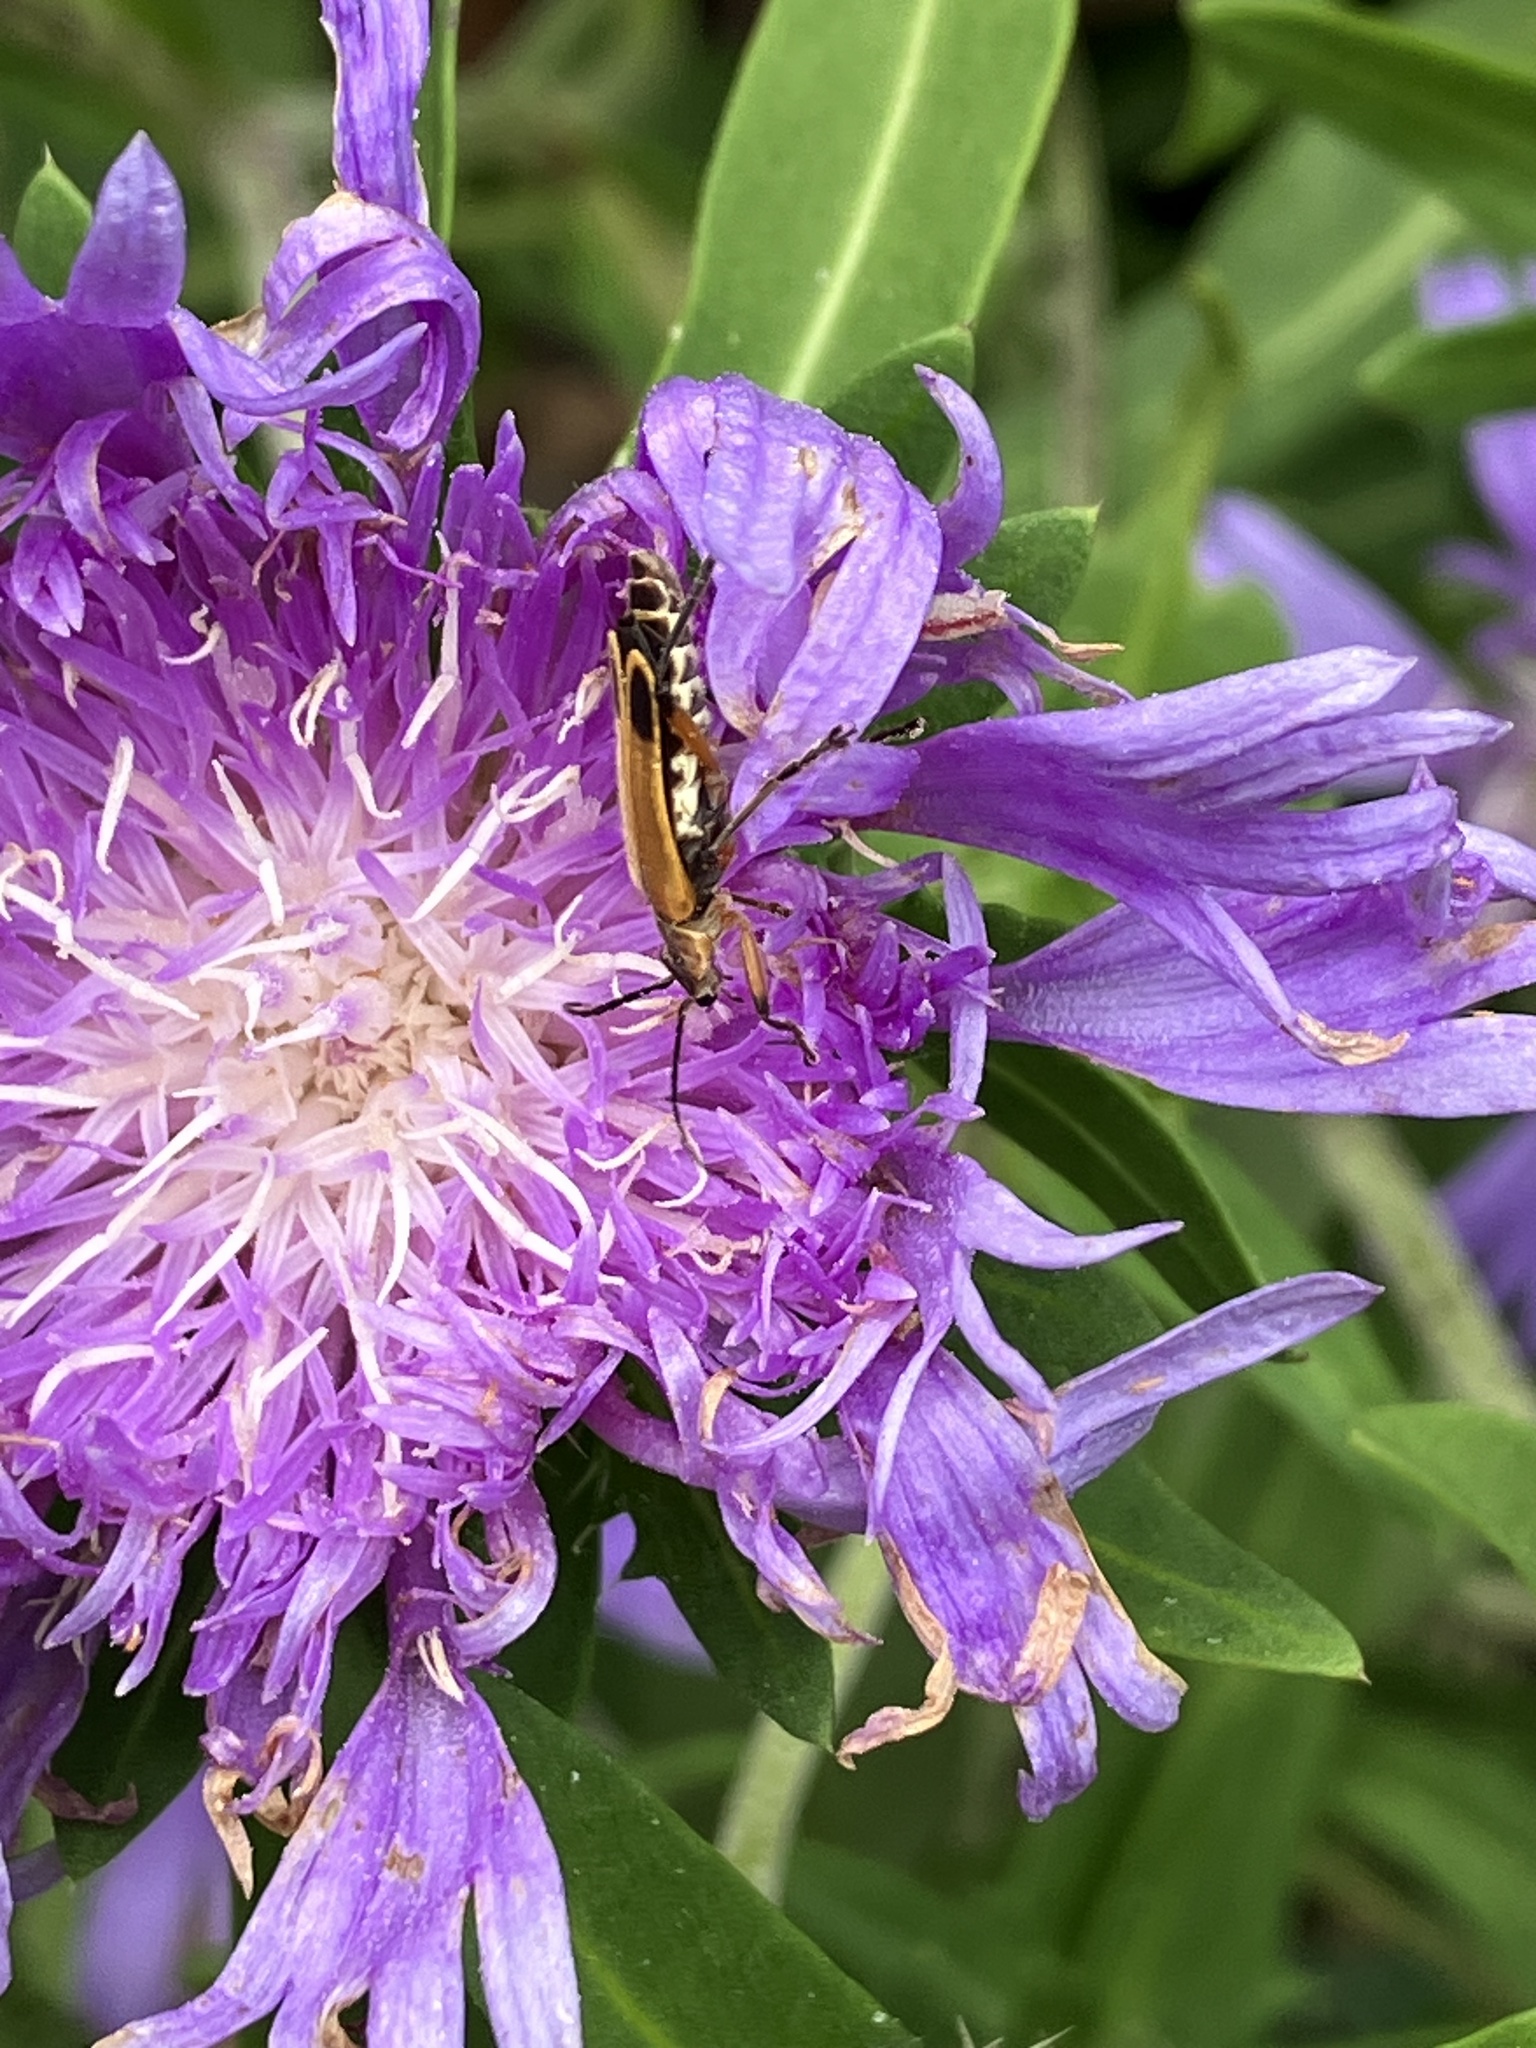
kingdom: Animalia
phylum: Arthropoda
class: Insecta
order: Coleoptera
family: Cantharidae
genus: Chauliognathus
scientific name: Chauliognathus marginatus
